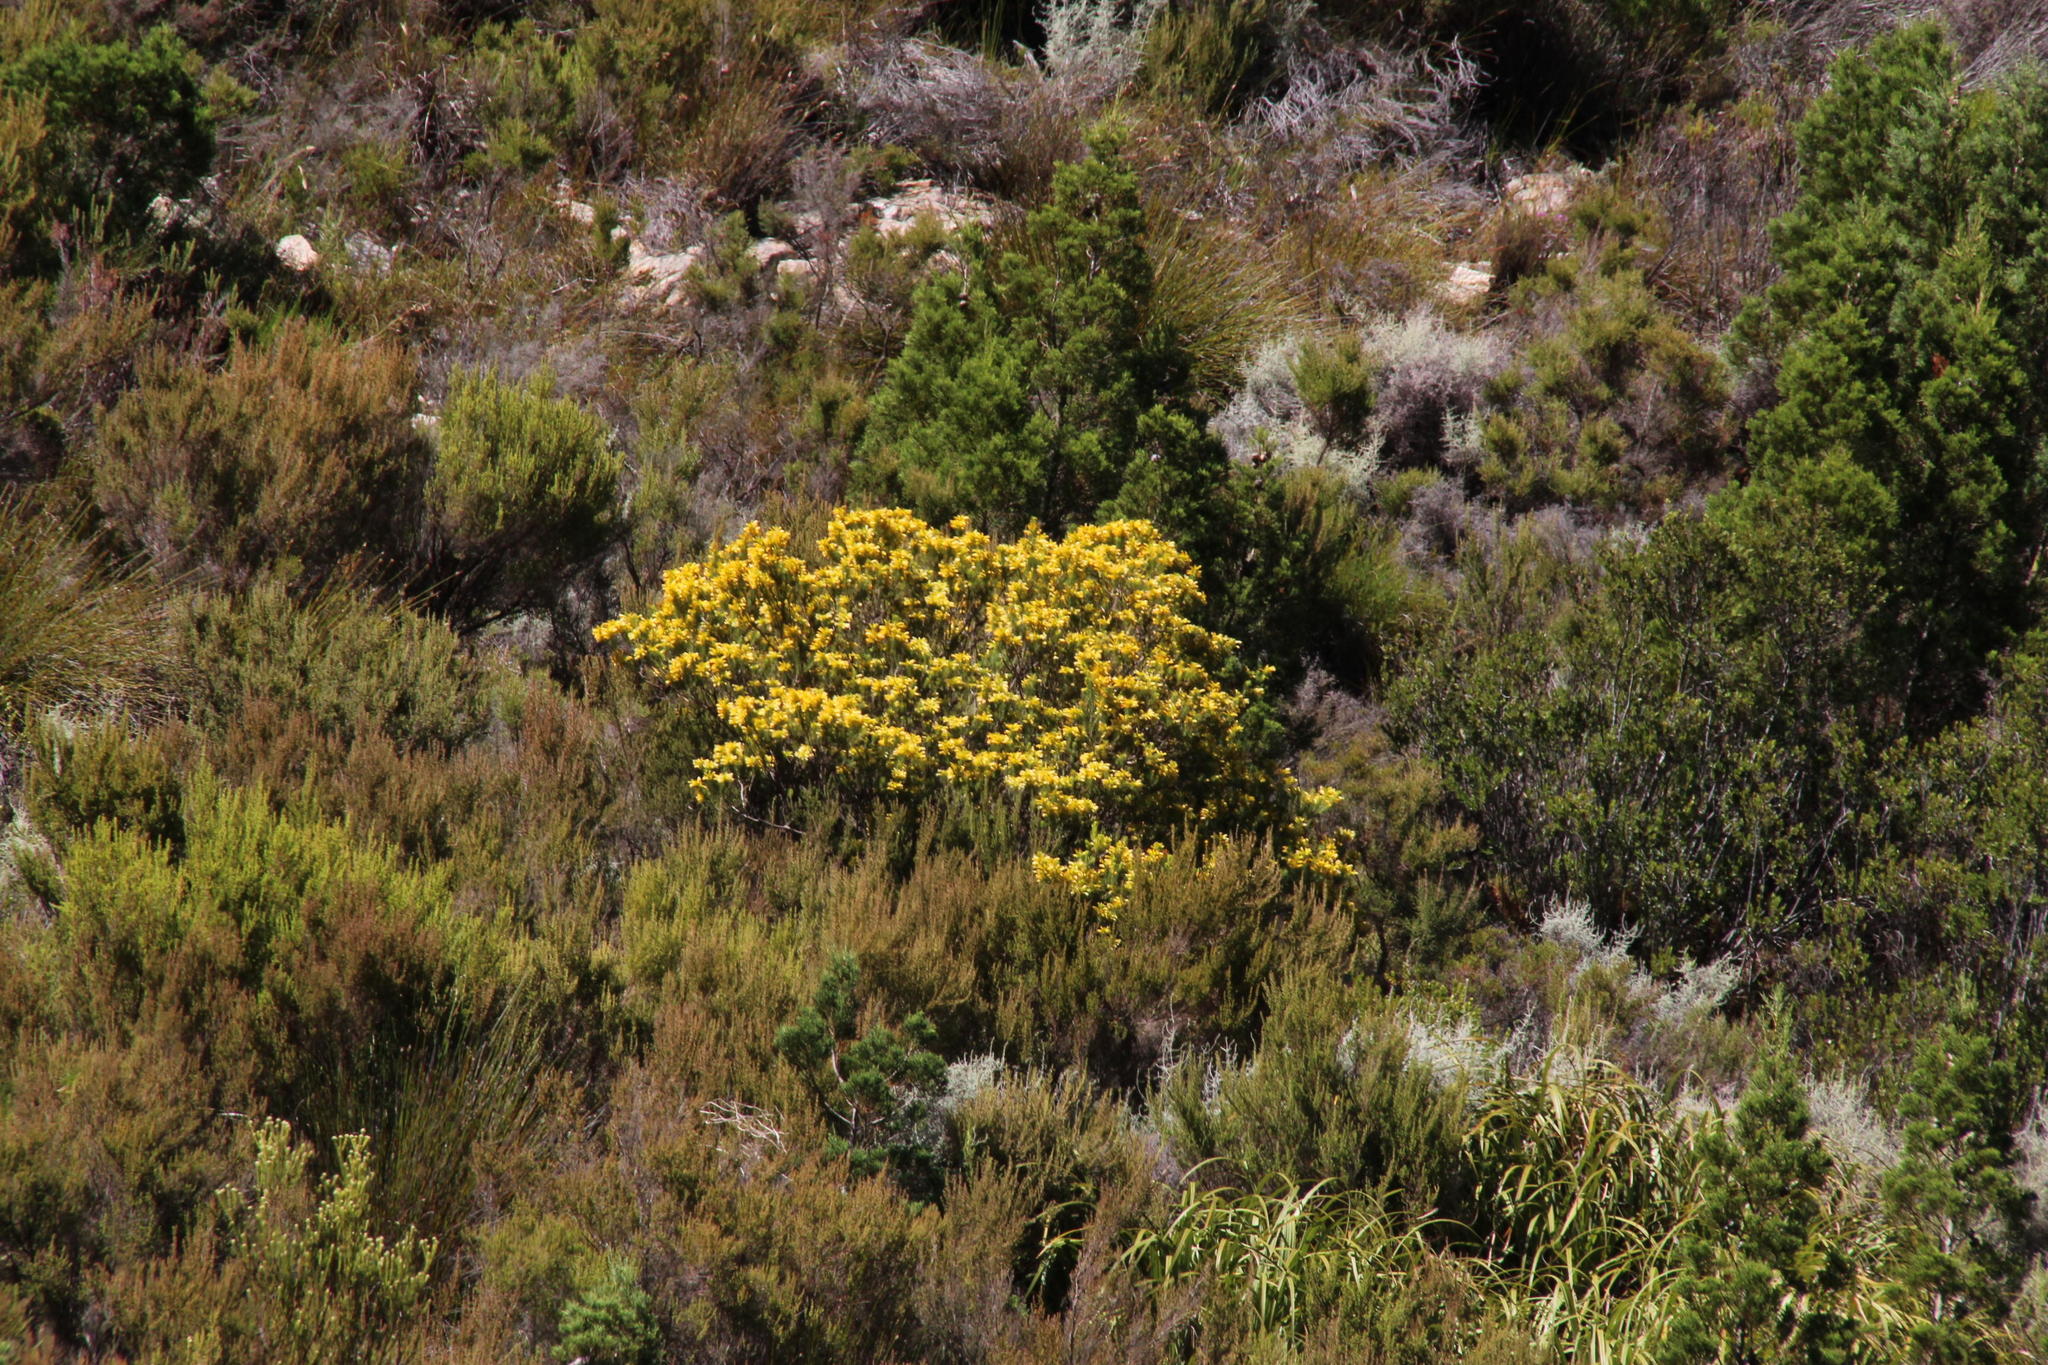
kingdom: Plantae
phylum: Tracheophyta
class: Magnoliopsida
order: Ericales
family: Ericaceae
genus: Erica
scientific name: Erica pinea
